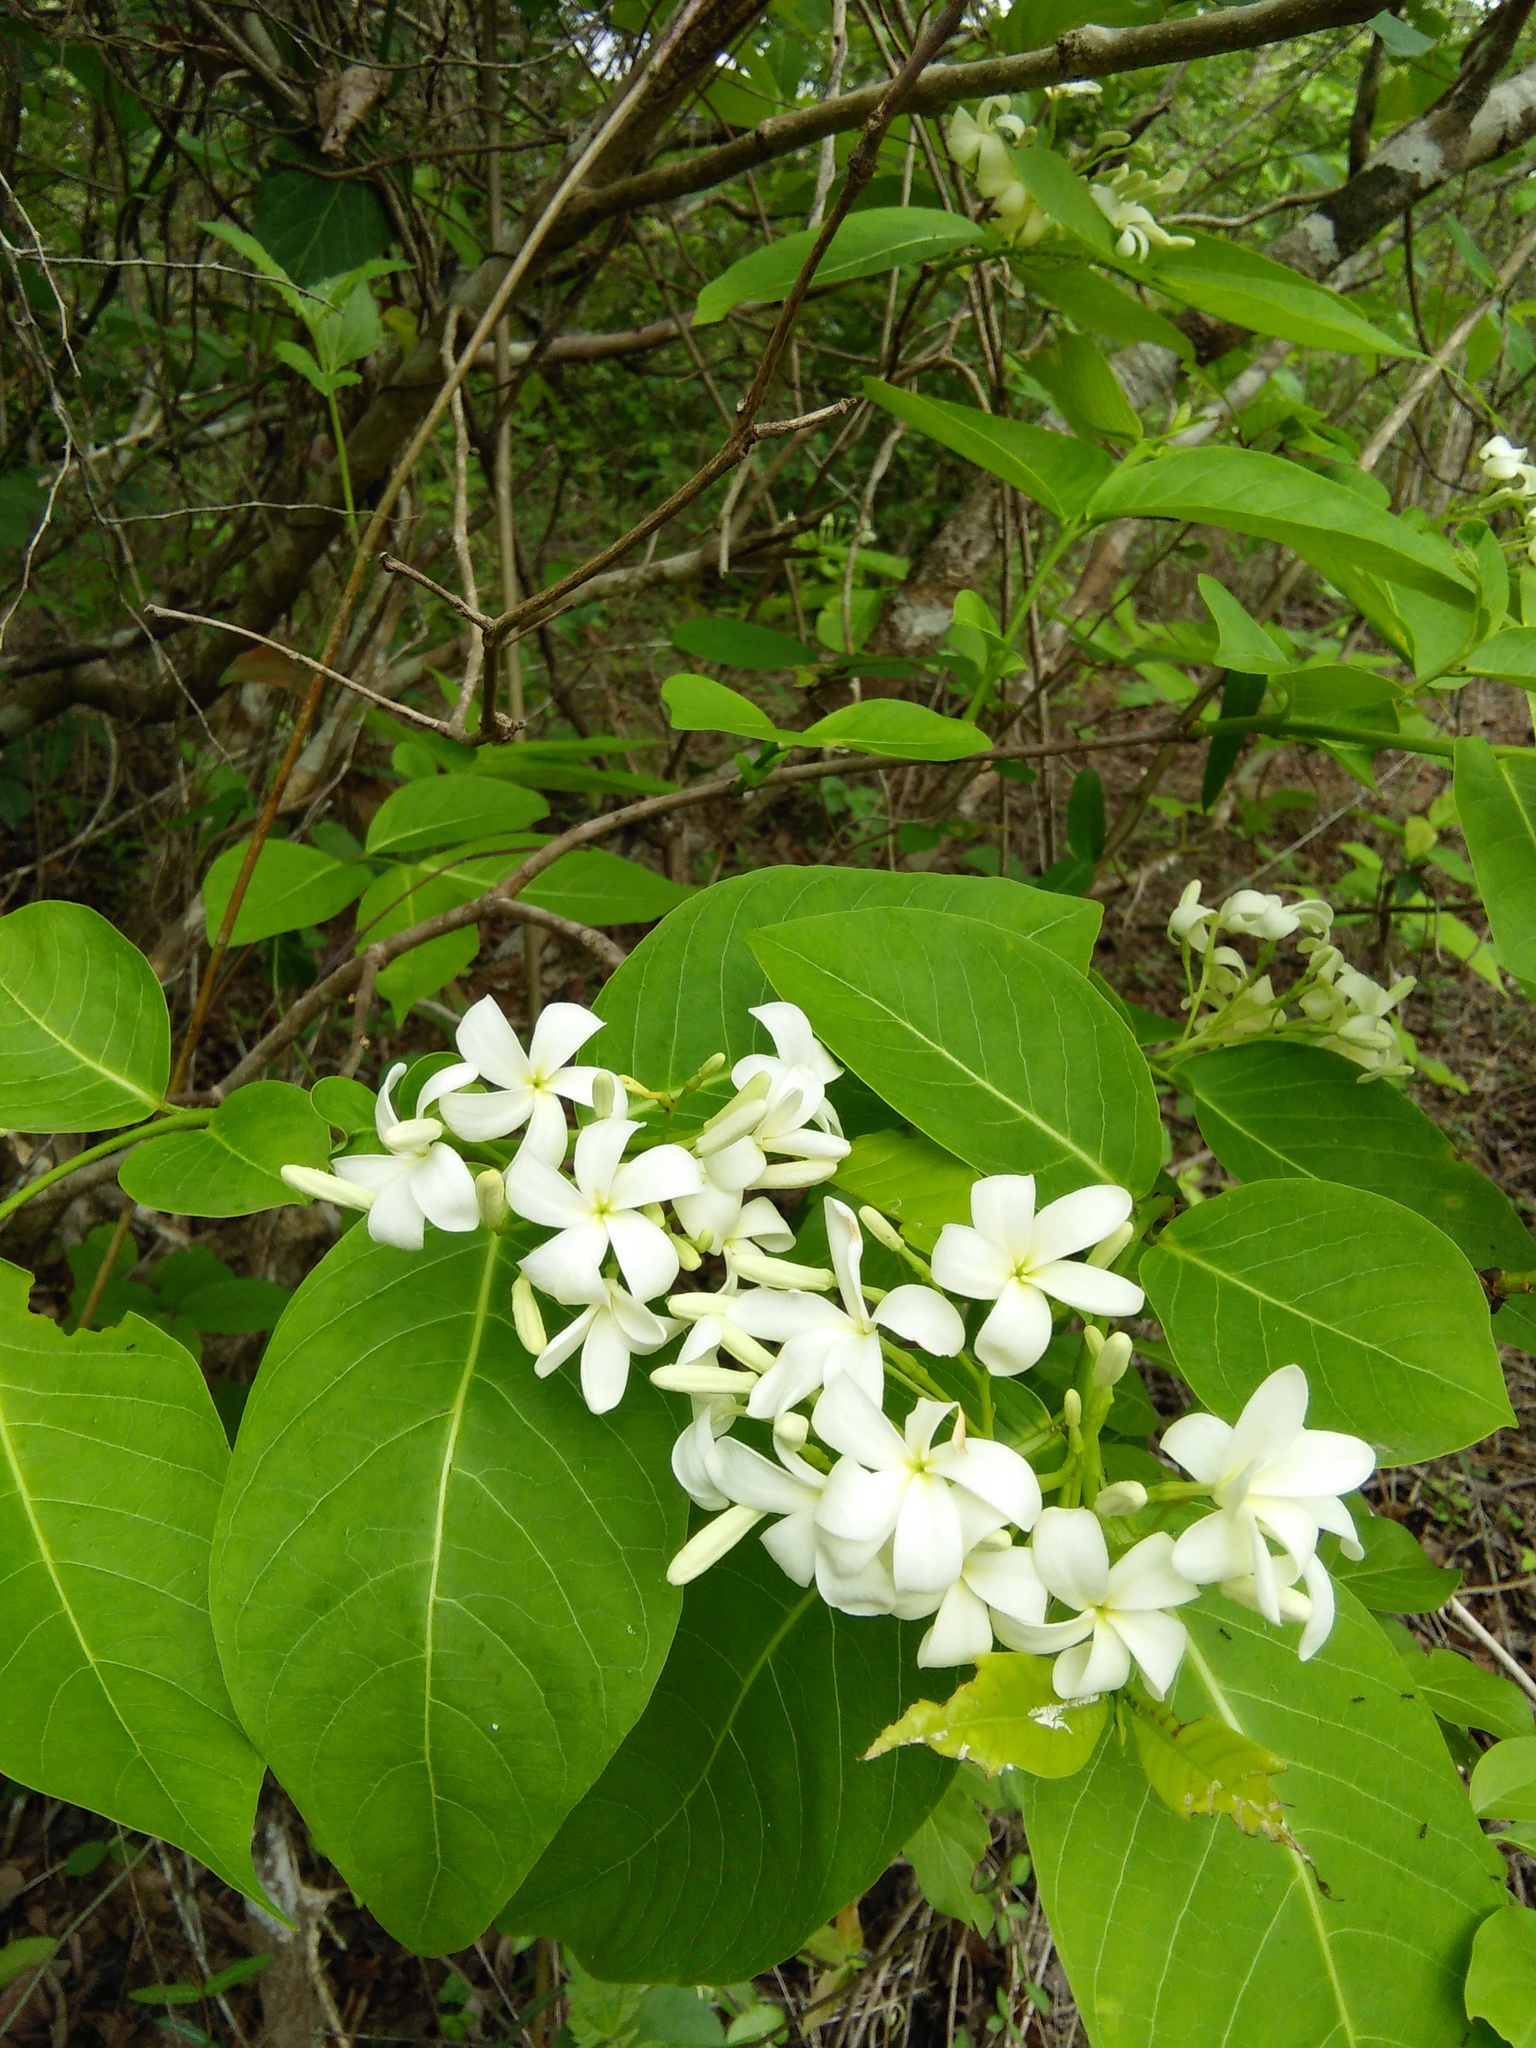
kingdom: Plantae
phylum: Tracheophyta
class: Magnoliopsida
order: Gentianales
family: Apocynaceae
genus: Holarrhena
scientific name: Holarrhena pubescens
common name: Bitter oleander
